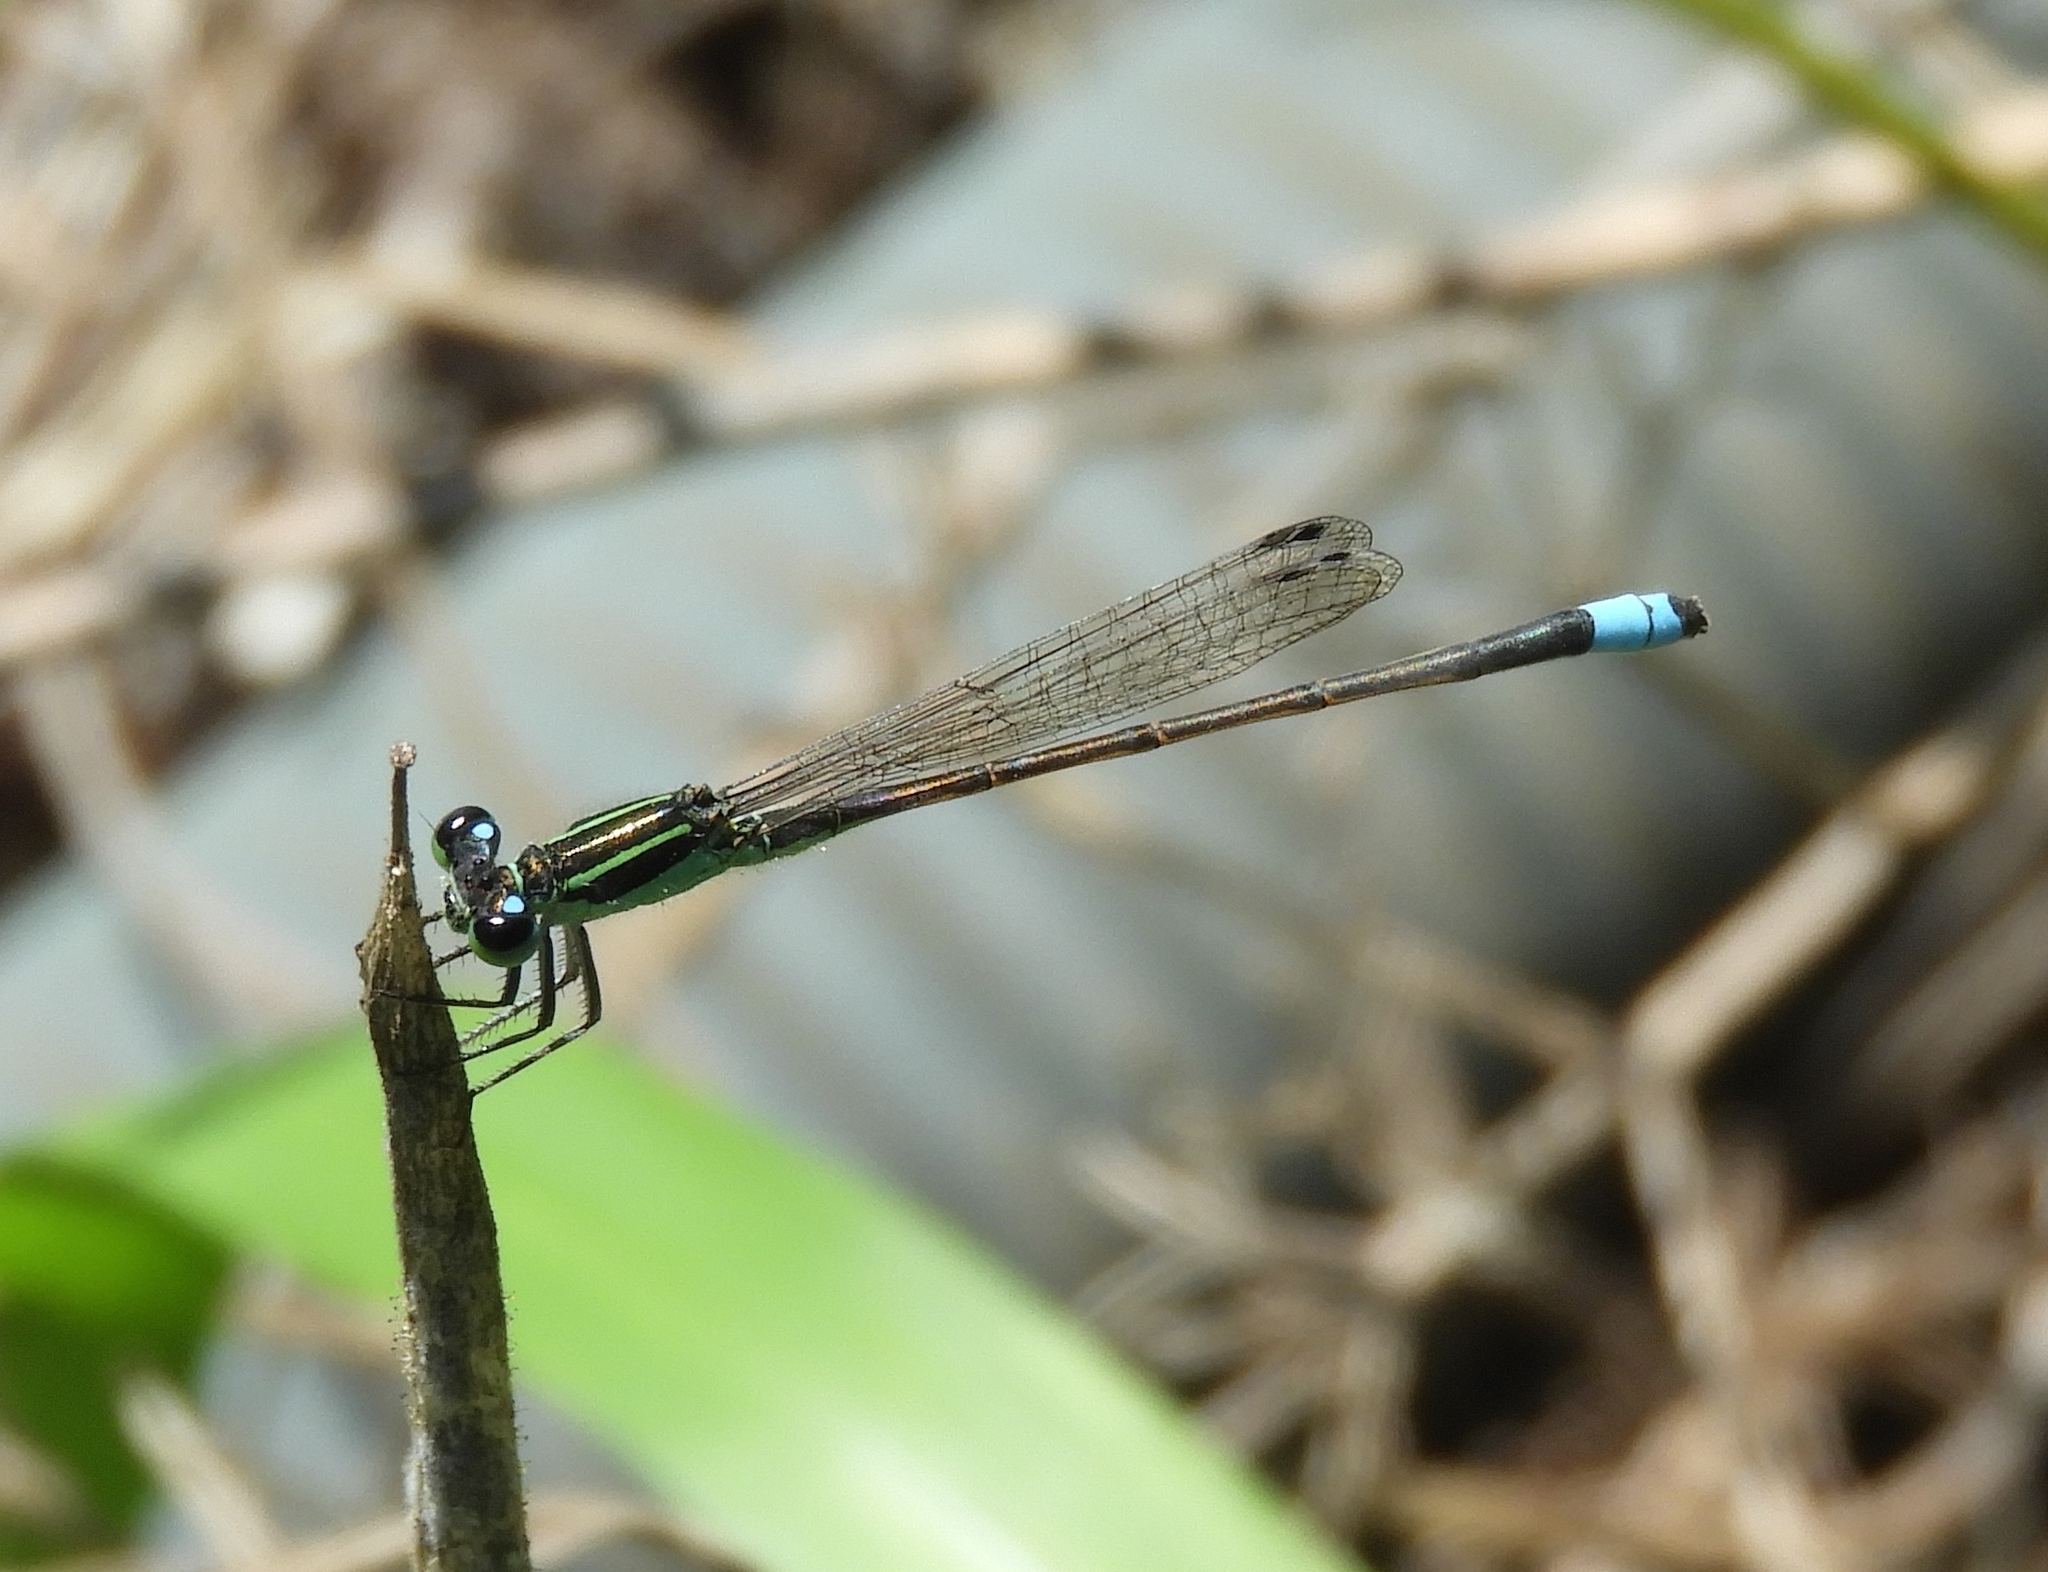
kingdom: Animalia
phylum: Arthropoda
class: Insecta
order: Odonata
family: Coenagrionidae
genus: Ischnura
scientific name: Ischnura ramburii
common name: Rambur's forktail
